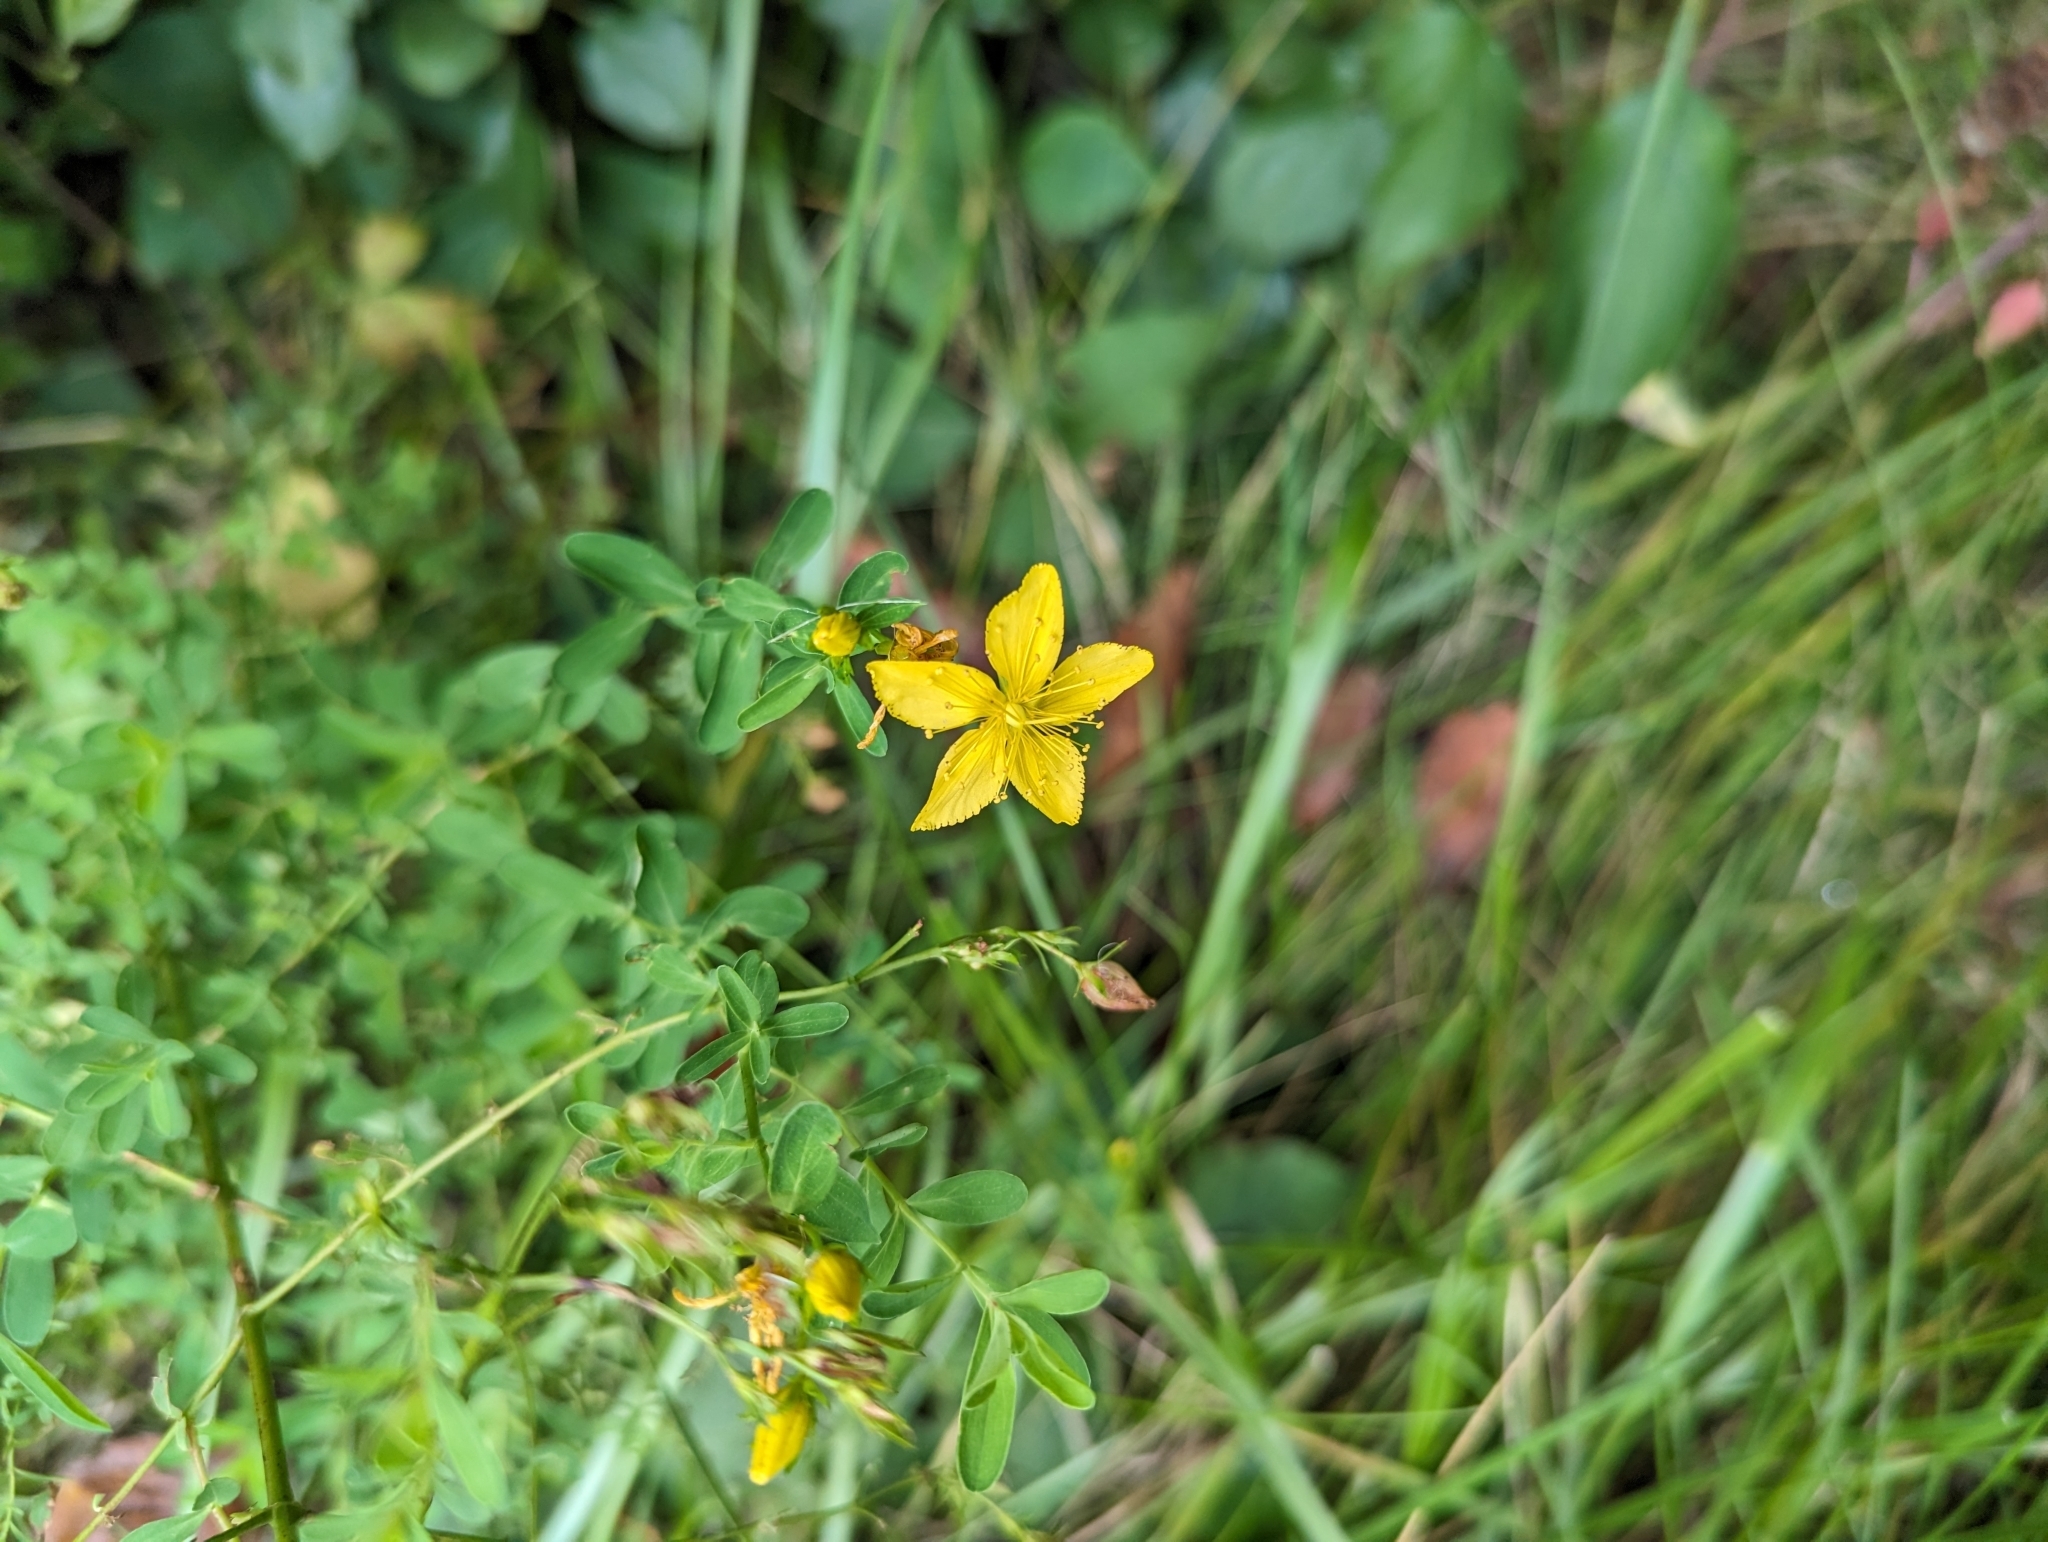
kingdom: Plantae
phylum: Tracheophyta
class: Magnoliopsida
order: Malpighiales
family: Hypericaceae
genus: Hypericum
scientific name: Hypericum perforatum
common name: Common st. johnswort
